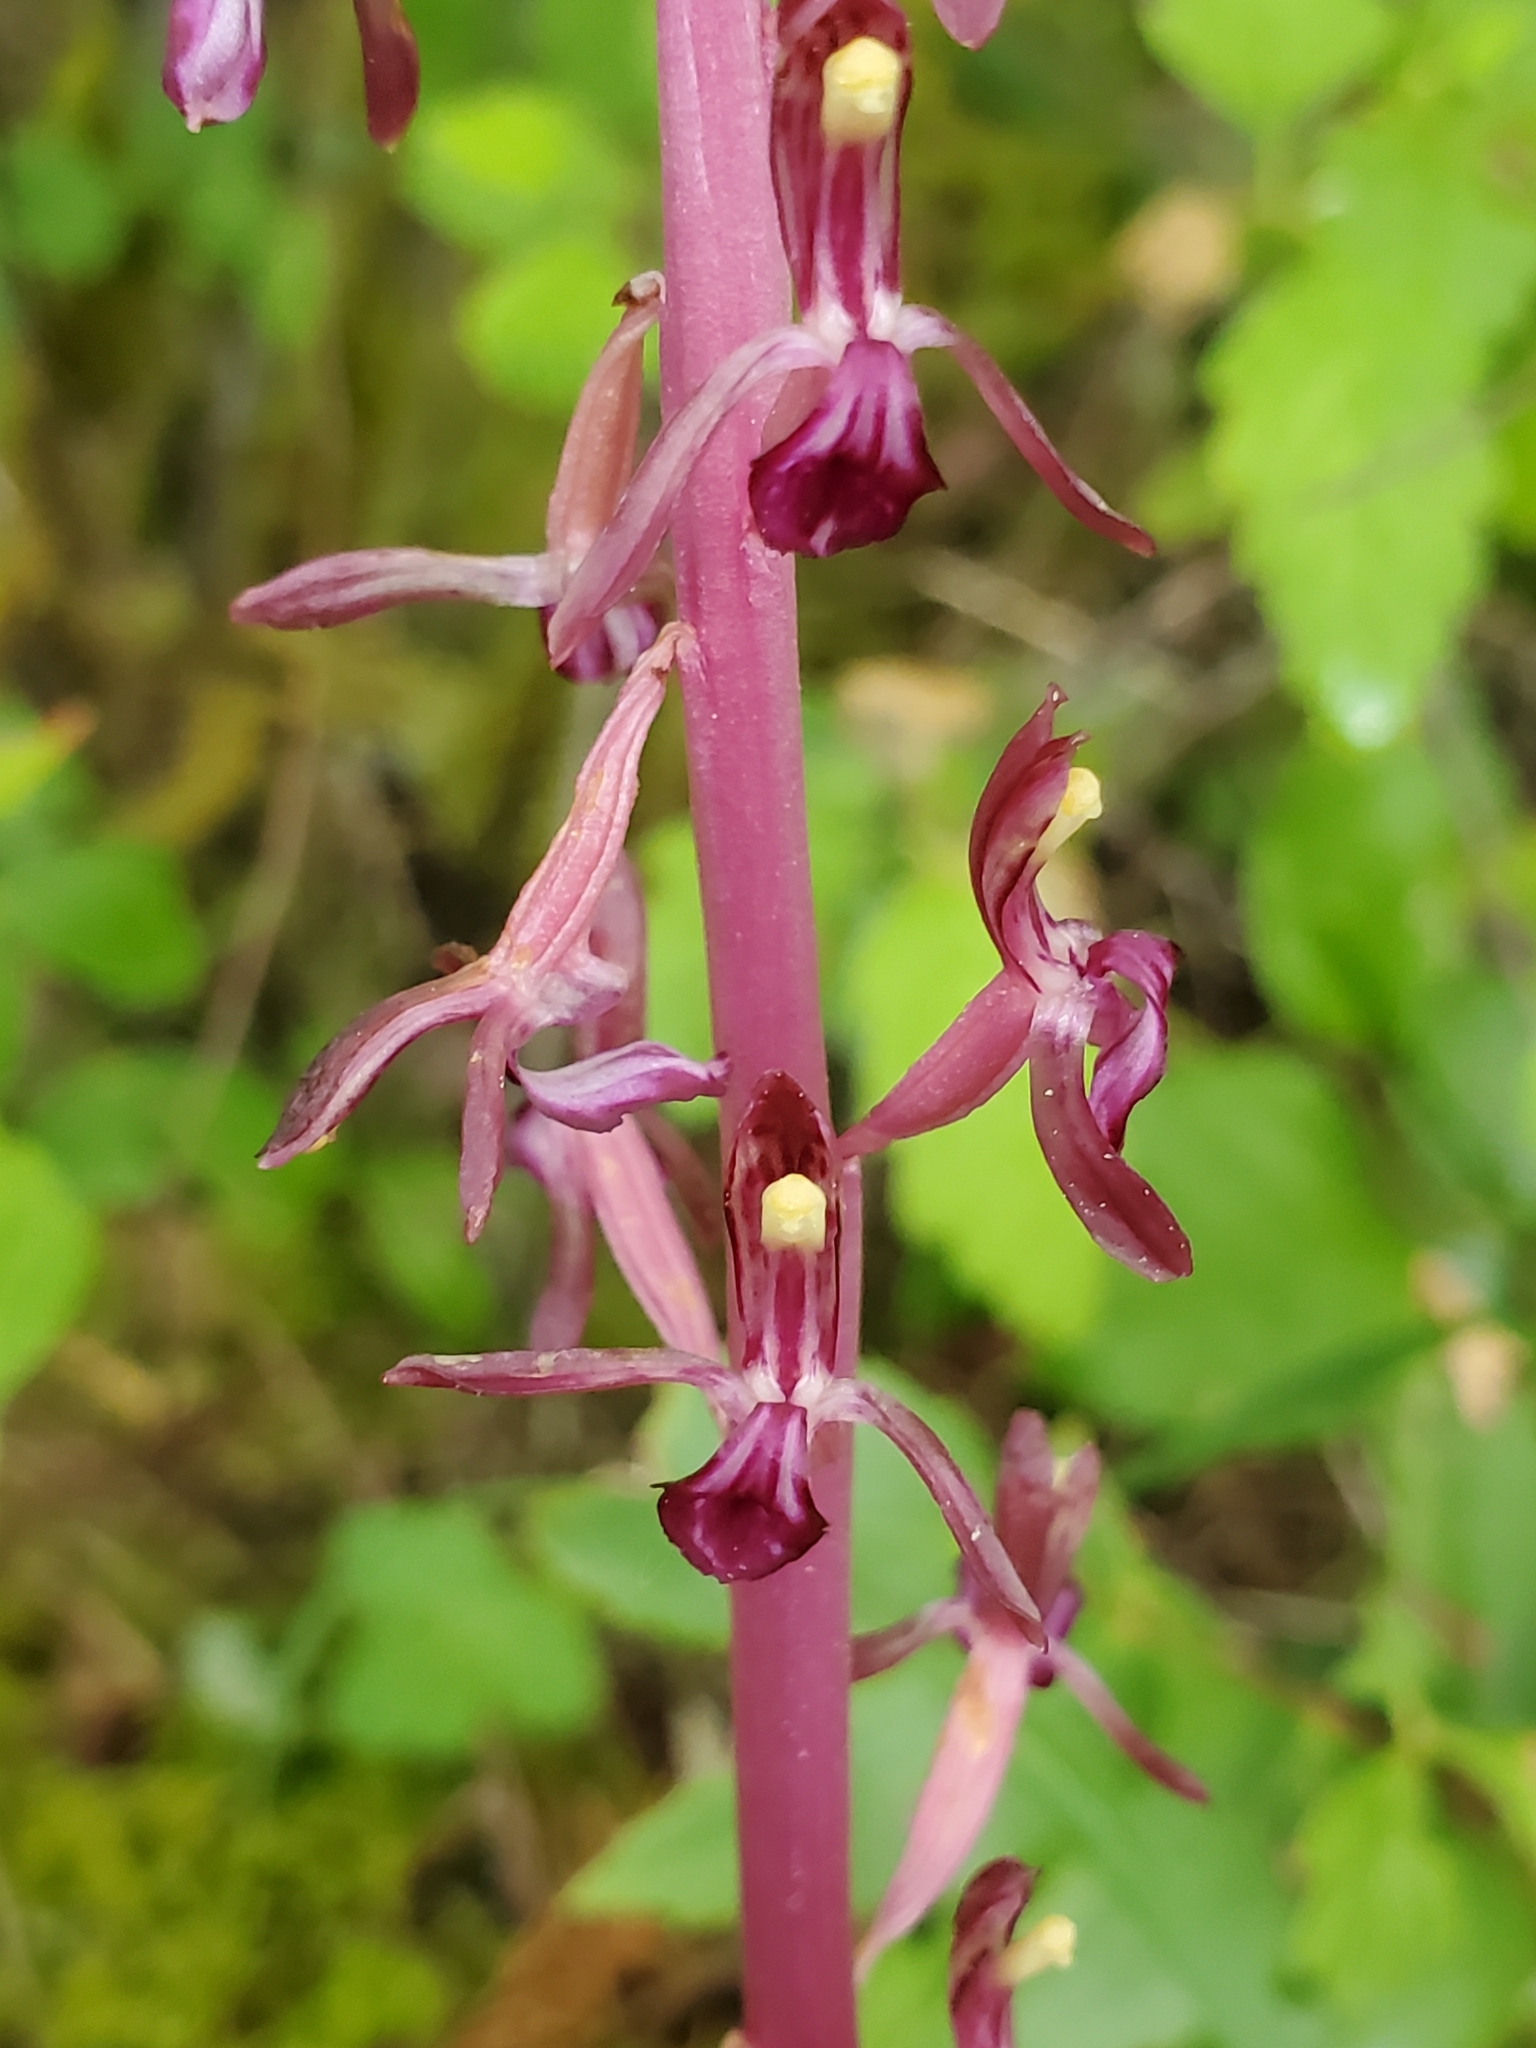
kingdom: Plantae
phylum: Tracheophyta
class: Liliopsida
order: Asparagales
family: Orchidaceae
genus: Corallorhiza
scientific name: Corallorhiza mertensiana
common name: Pacific coralroot
